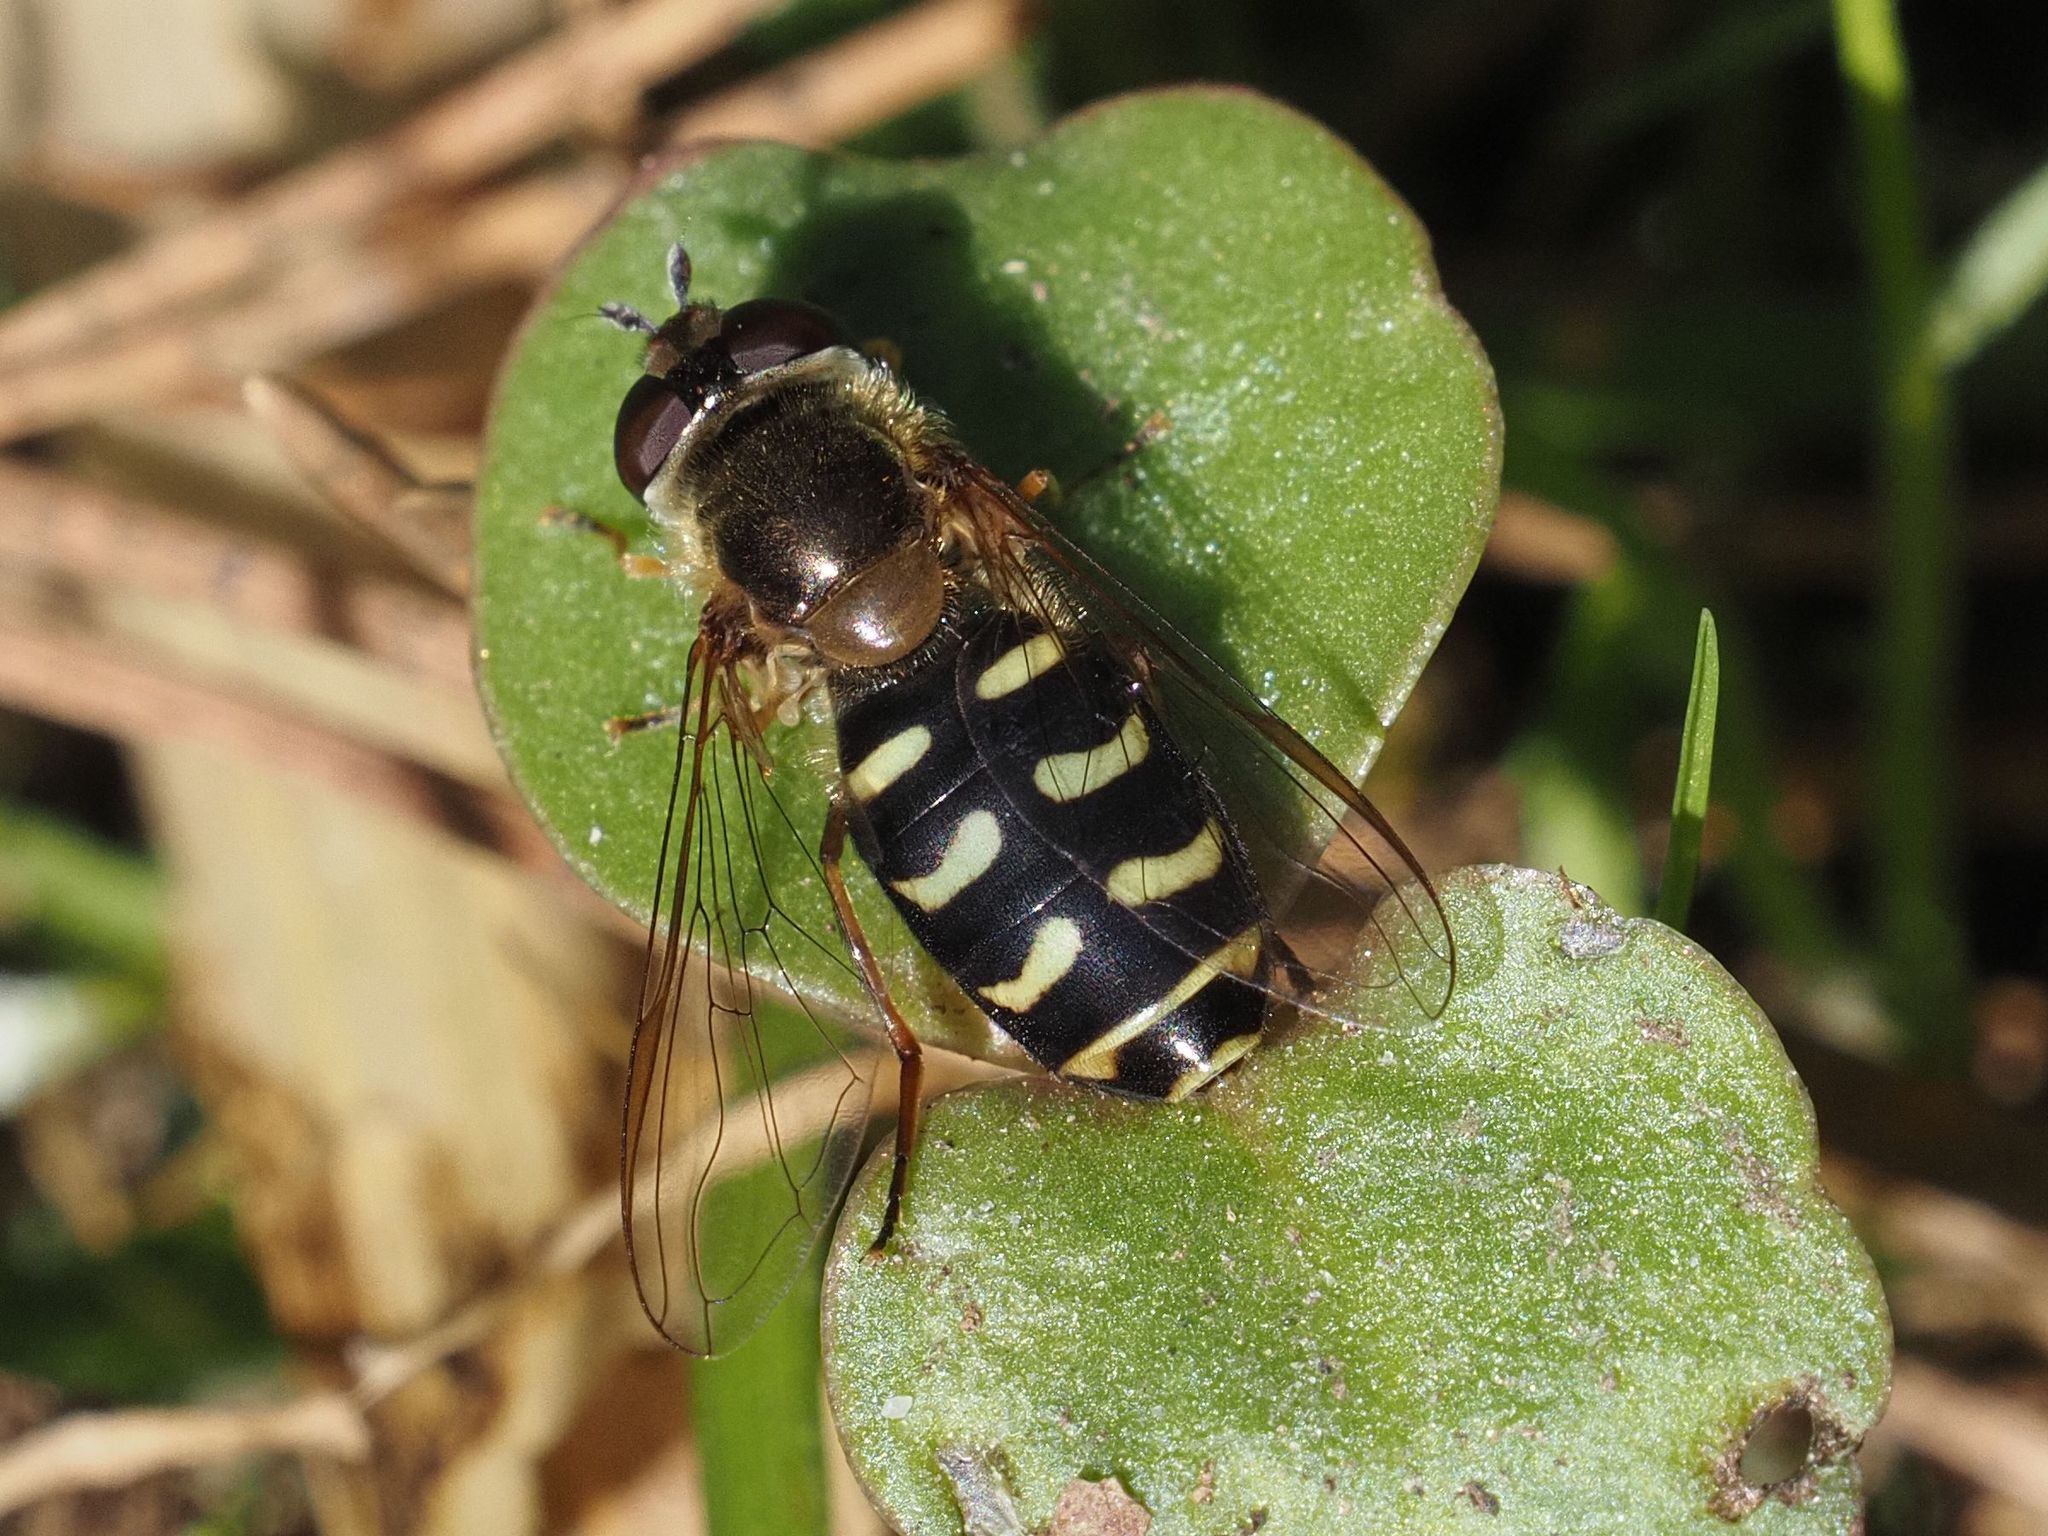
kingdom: Animalia
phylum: Arthropoda
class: Insecta
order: Diptera
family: Syrphidae
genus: Lapposyrphus
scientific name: Lapposyrphus lapponicus
